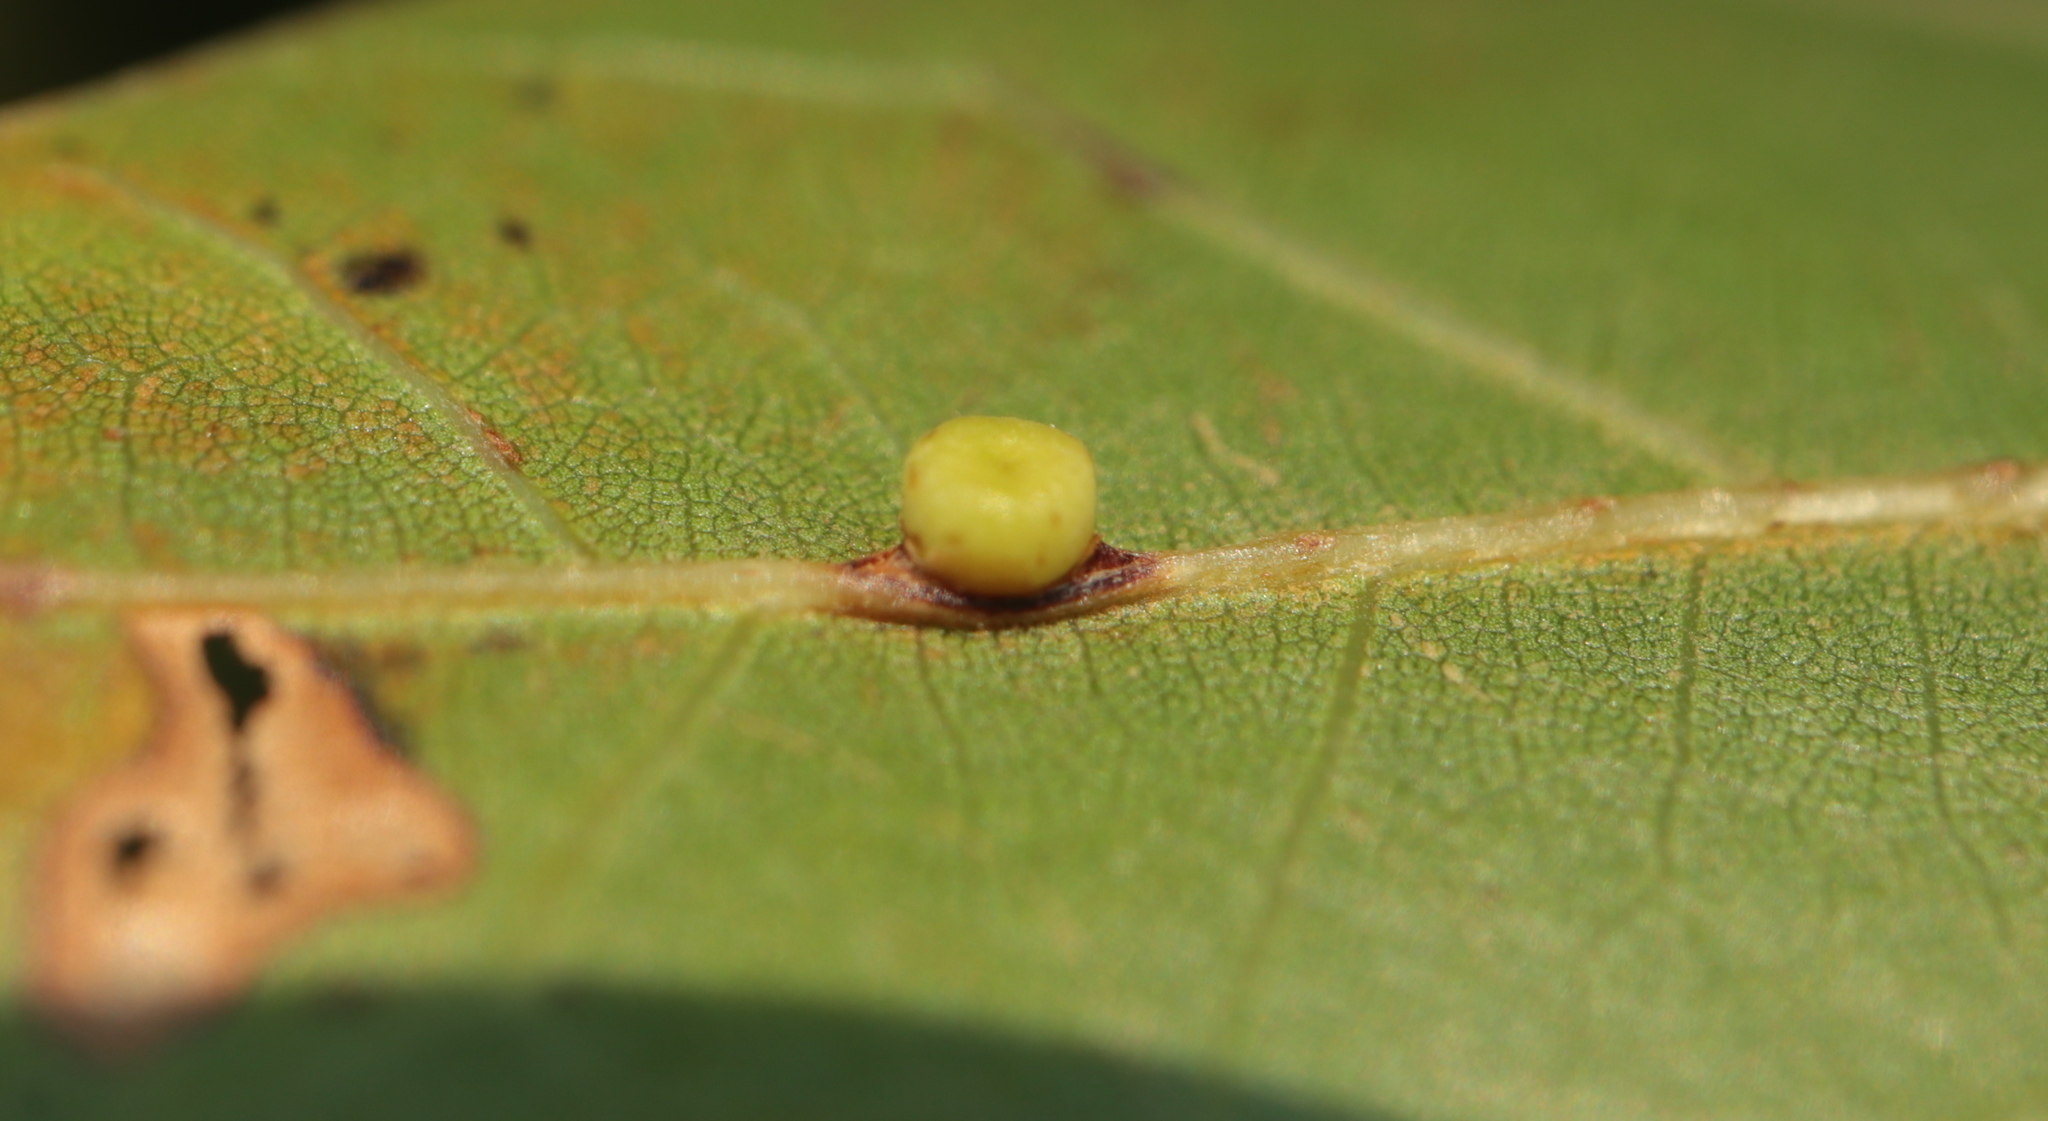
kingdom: Animalia
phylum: Arthropoda
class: Insecta
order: Hymenoptera
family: Cynipidae
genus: Kokkocynips
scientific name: Kokkocynips rileyi
